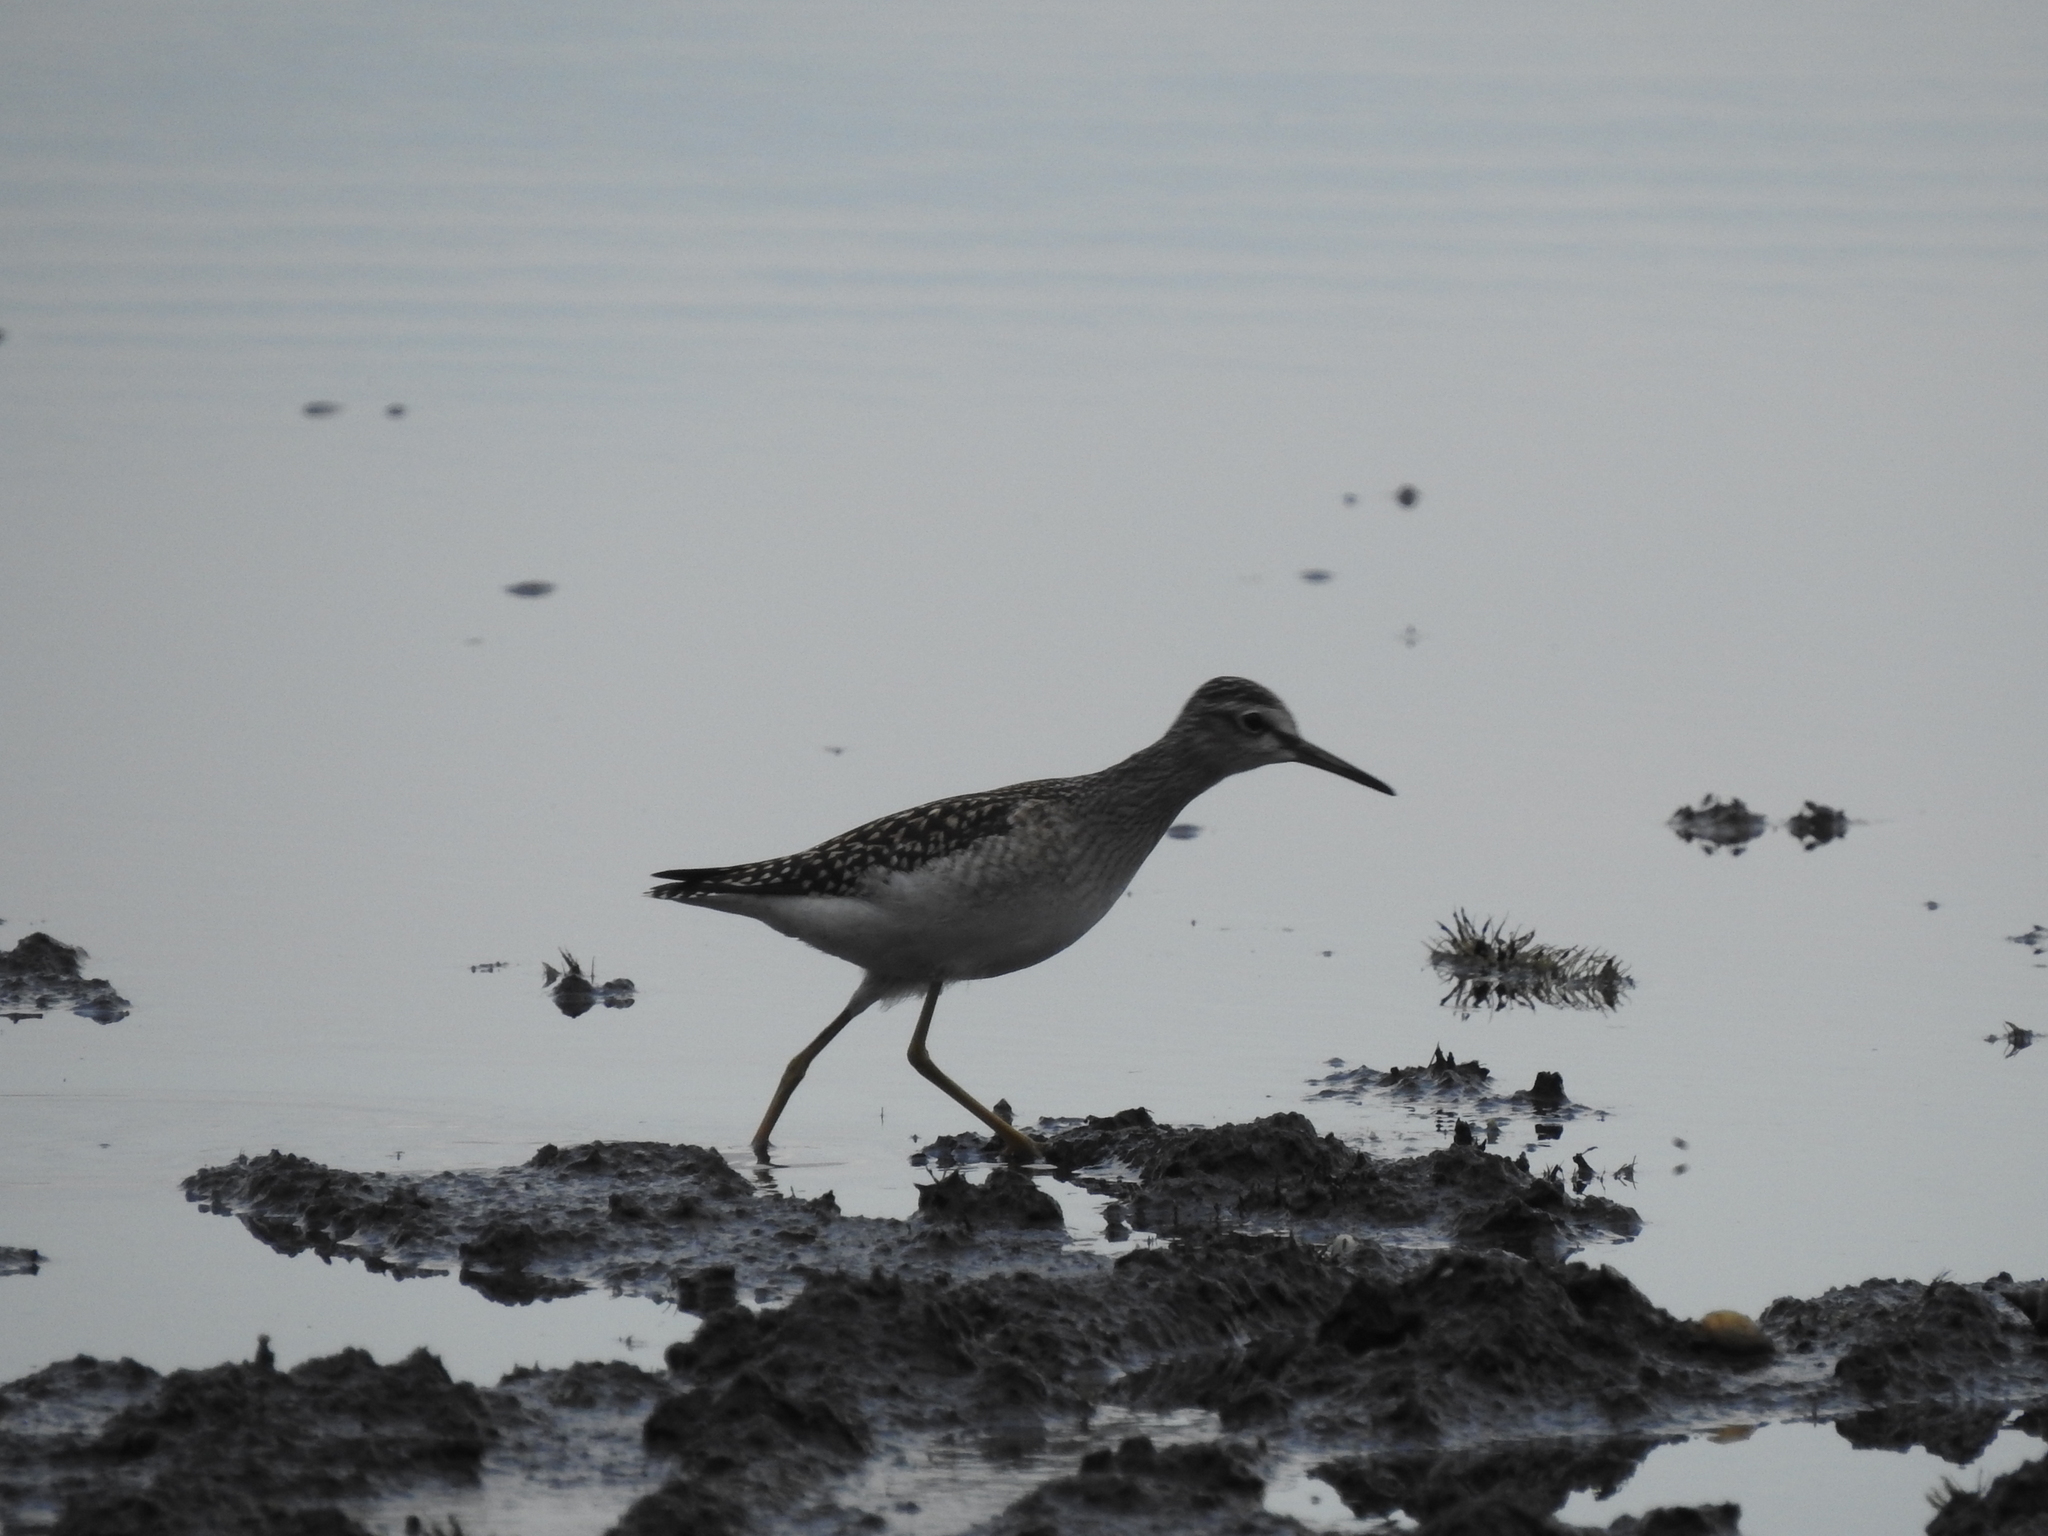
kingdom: Animalia
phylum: Chordata
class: Aves
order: Charadriiformes
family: Scolopacidae
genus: Tringa
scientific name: Tringa glareola
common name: Wood sandpiper
